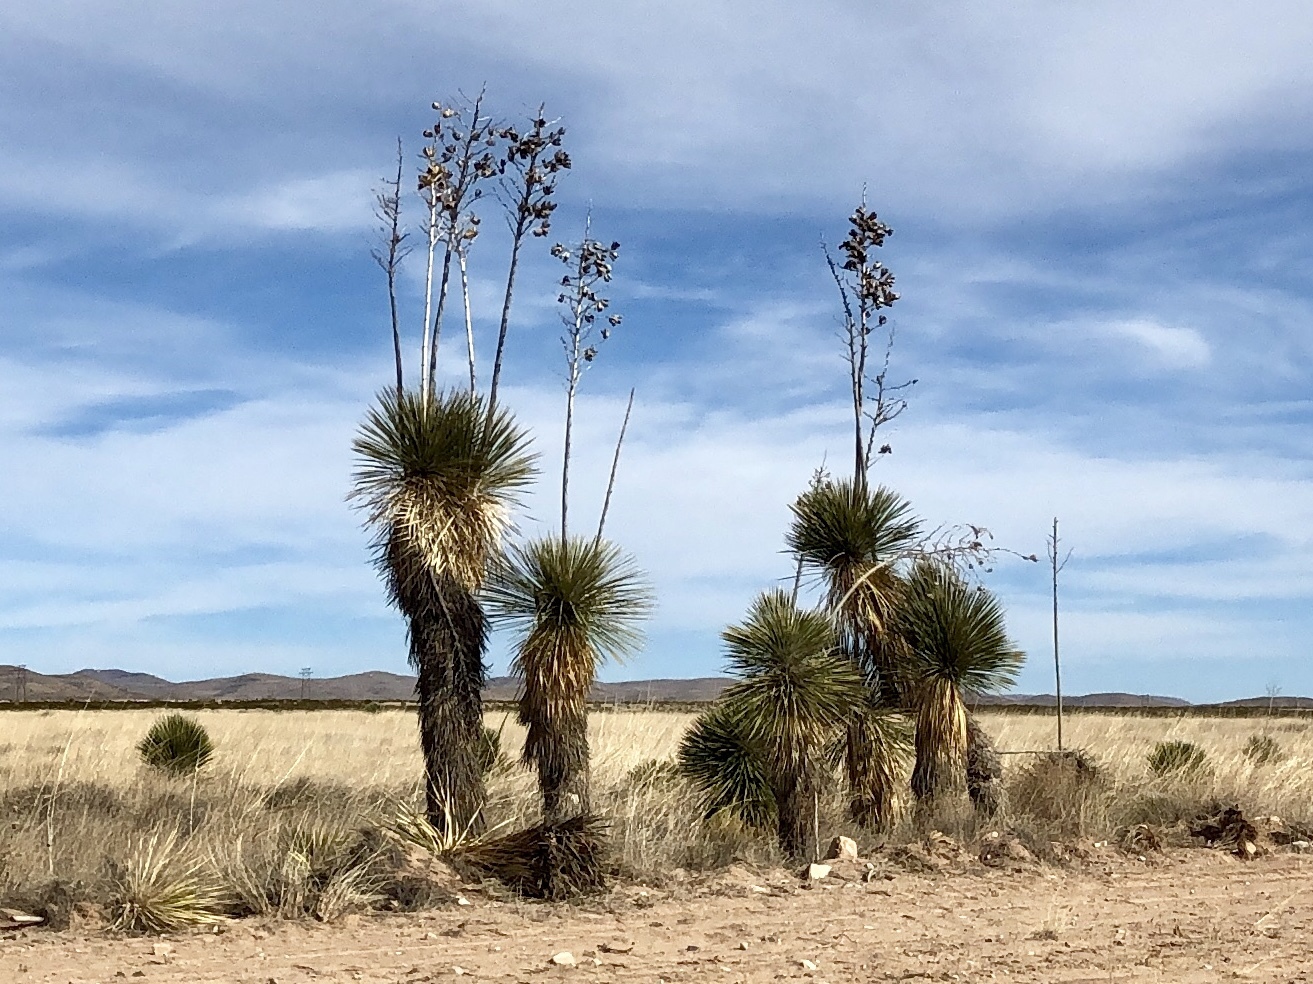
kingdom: Plantae
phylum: Tracheophyta
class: Liliopsida
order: Asparagales
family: Asparagaceae
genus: Yucca
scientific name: Yucca elata
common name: Palmella
